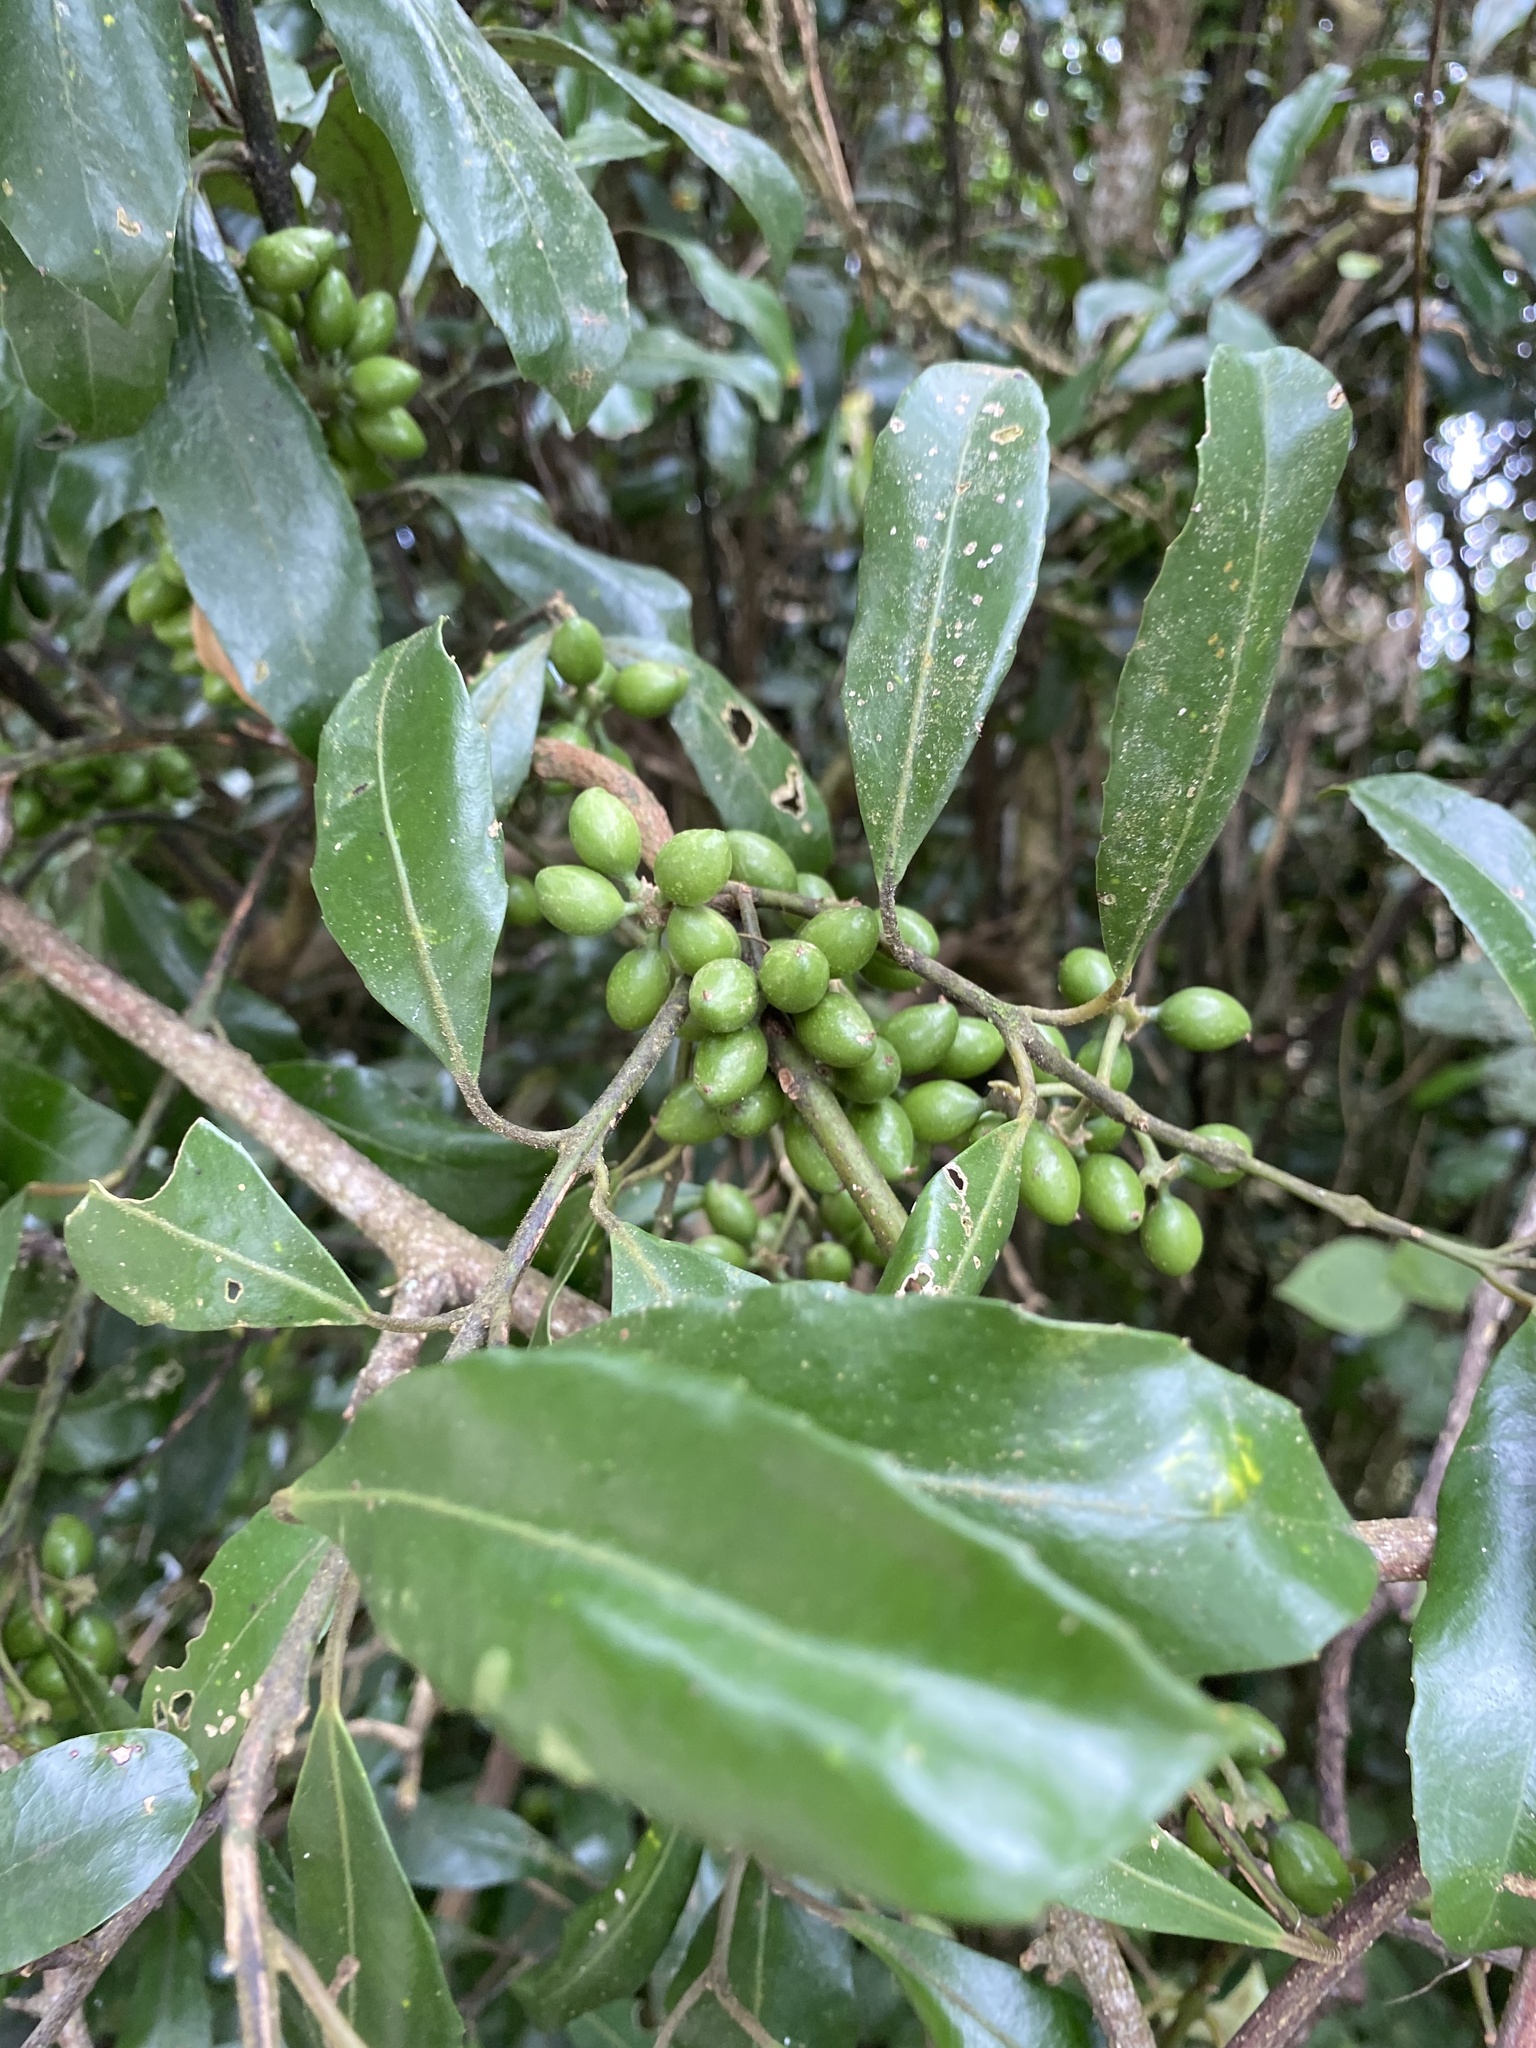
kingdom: Plantae
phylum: Tracheophyta
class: Magnoliopsida
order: Laurales
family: Monimiaceae
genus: Hedycarya
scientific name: Hedycarya arborea
